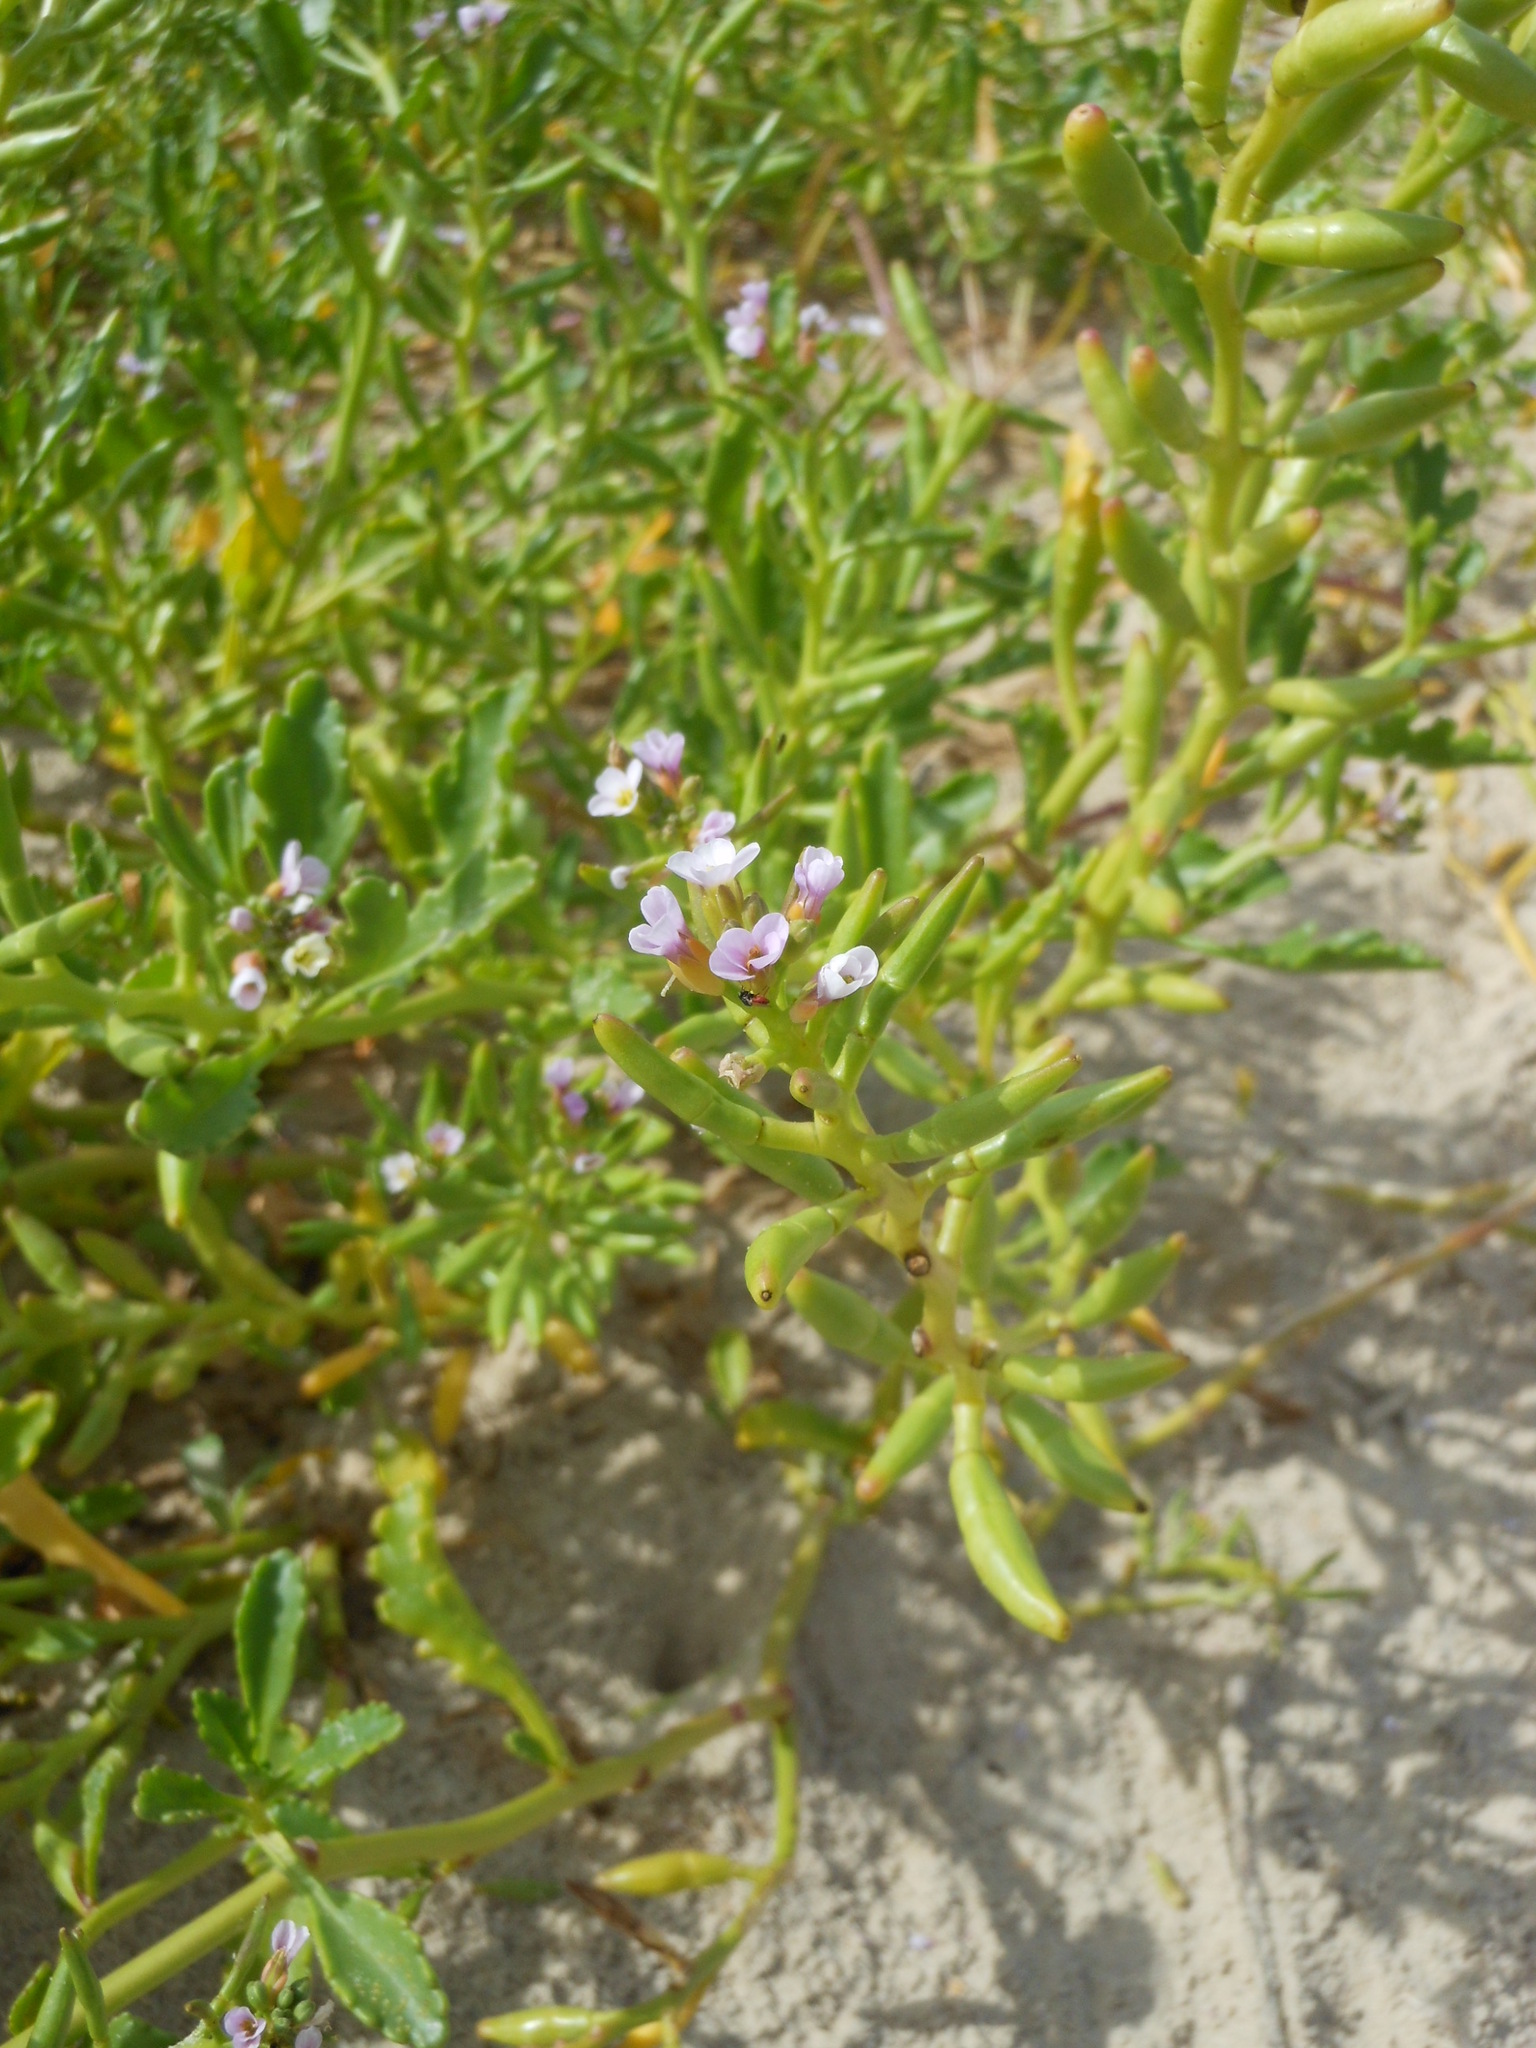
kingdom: Plantae
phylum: Tracheophyta
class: Magnoliopsida
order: Brassicales
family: Brassicaceae
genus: Cakile
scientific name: Cakile geniculata
